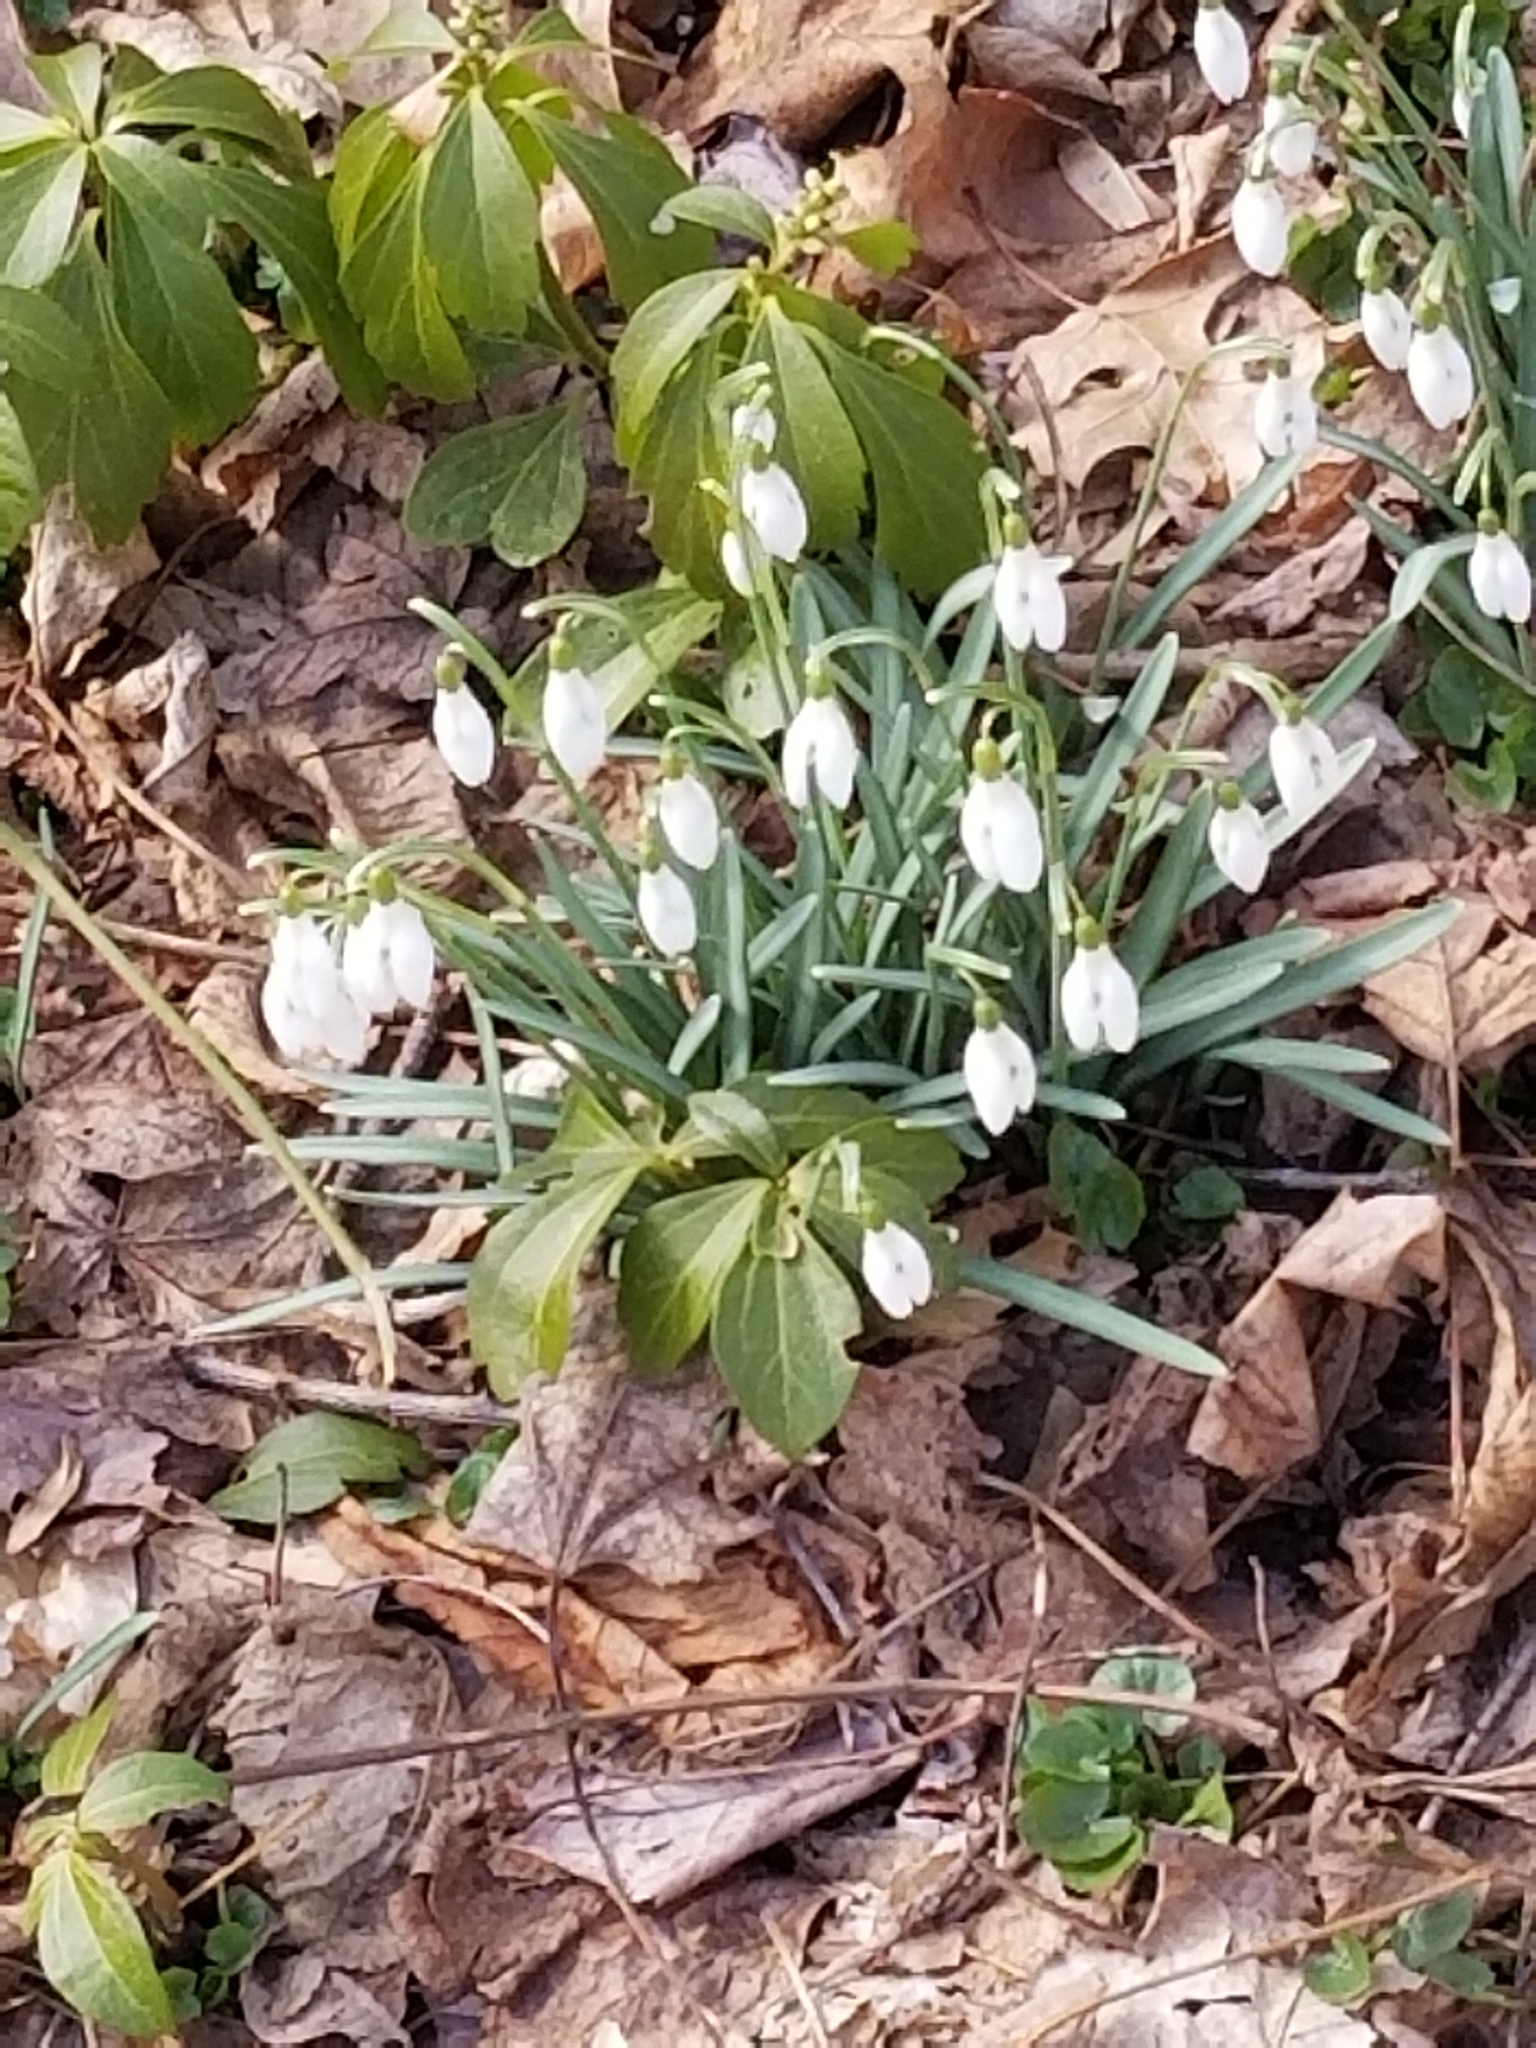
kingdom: Plantae
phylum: Tracheophyta
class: Liliopsida
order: Asparagales
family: Amaryllidaceae
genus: Galanthus
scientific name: Galanthus nivalis
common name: Snowdrop
